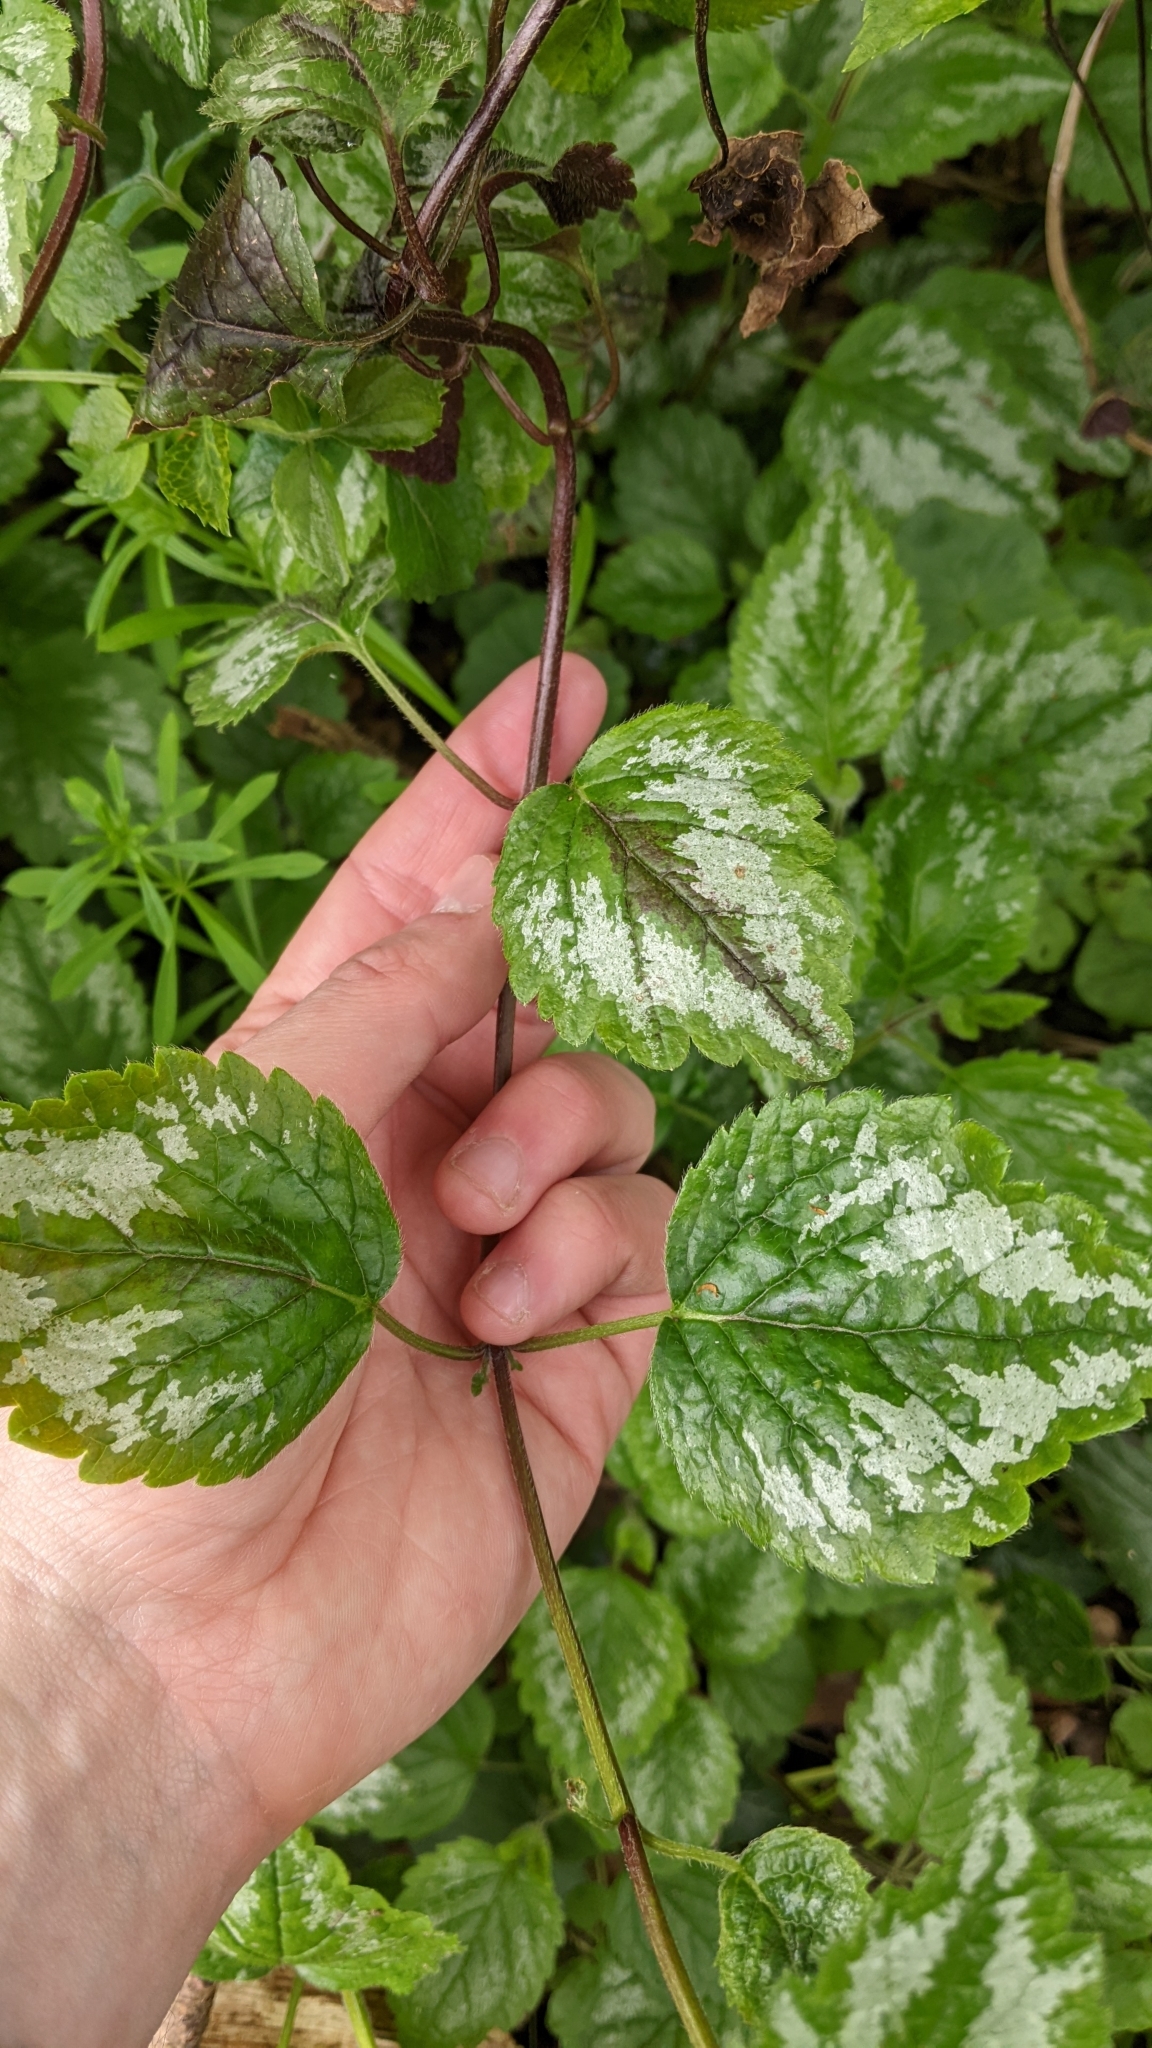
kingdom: Plantae
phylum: Tracheophyta
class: Magnoliopsida
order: Lamiales
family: Lamiaceae
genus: Lamium
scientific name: Lamium galeobdolon
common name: Yellow archangel
